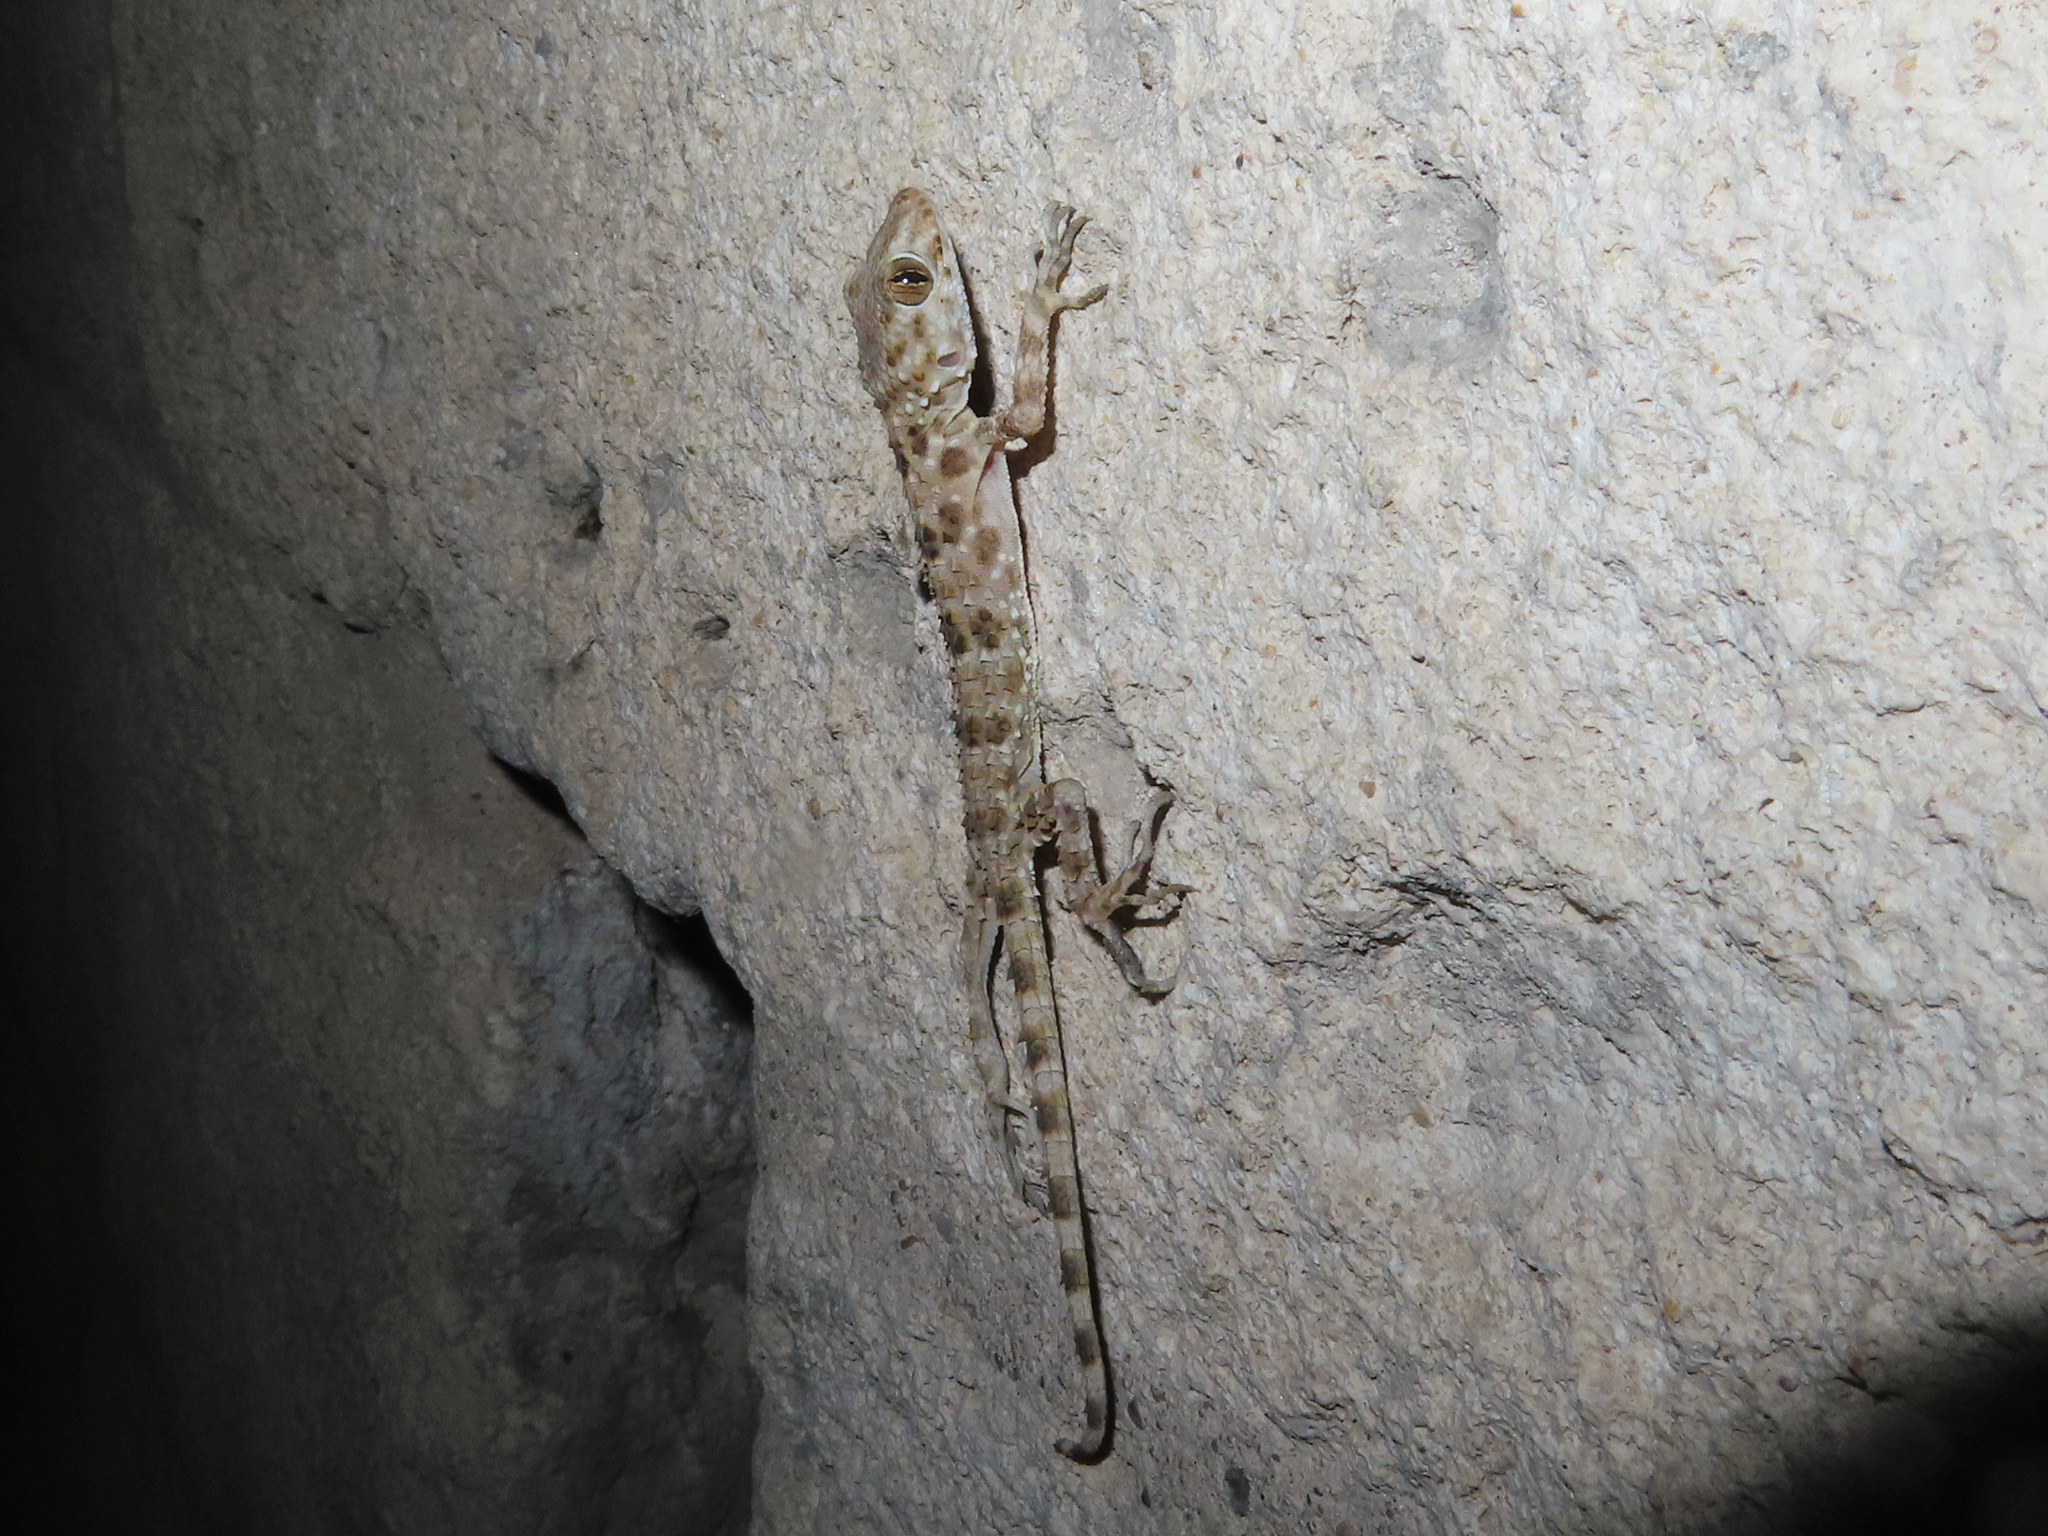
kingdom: Animalia
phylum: Chordata
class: Squamata
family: Gekkonidae
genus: Tenuidactylus
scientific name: Tenuidactylus caspius
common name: Caspian bent-toed gecko
